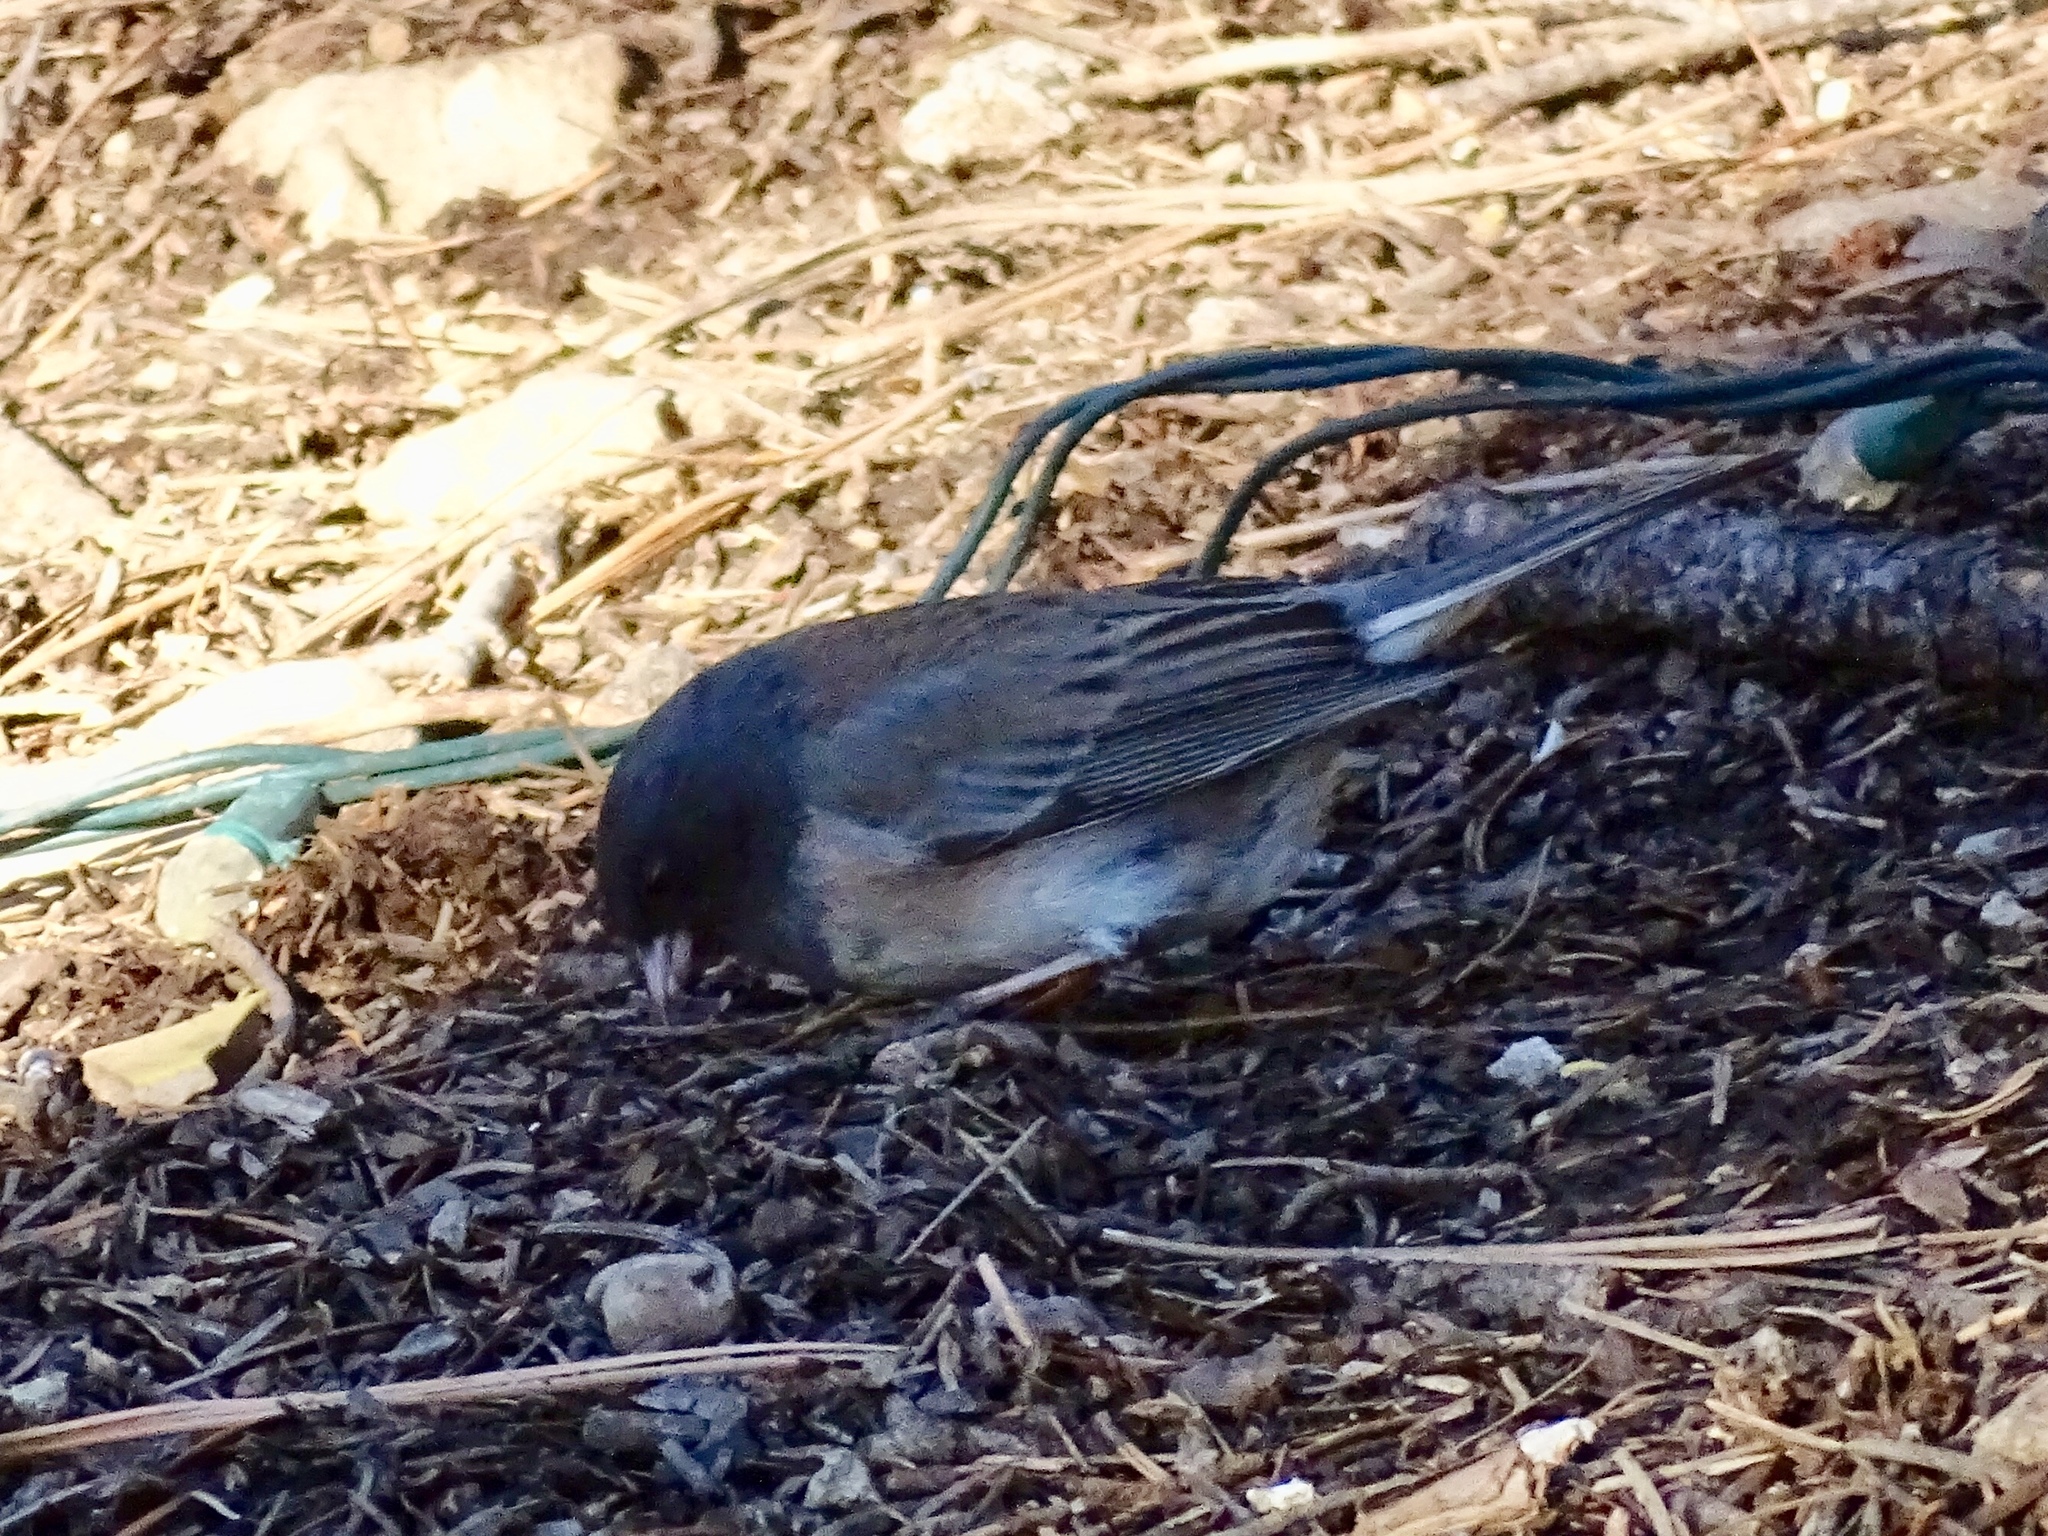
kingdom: Animalia
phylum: Chordata
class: Aves
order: Passeriformes
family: Passerellidae
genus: Junco
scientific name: Junco hyemalis
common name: Dark-eyed junco
